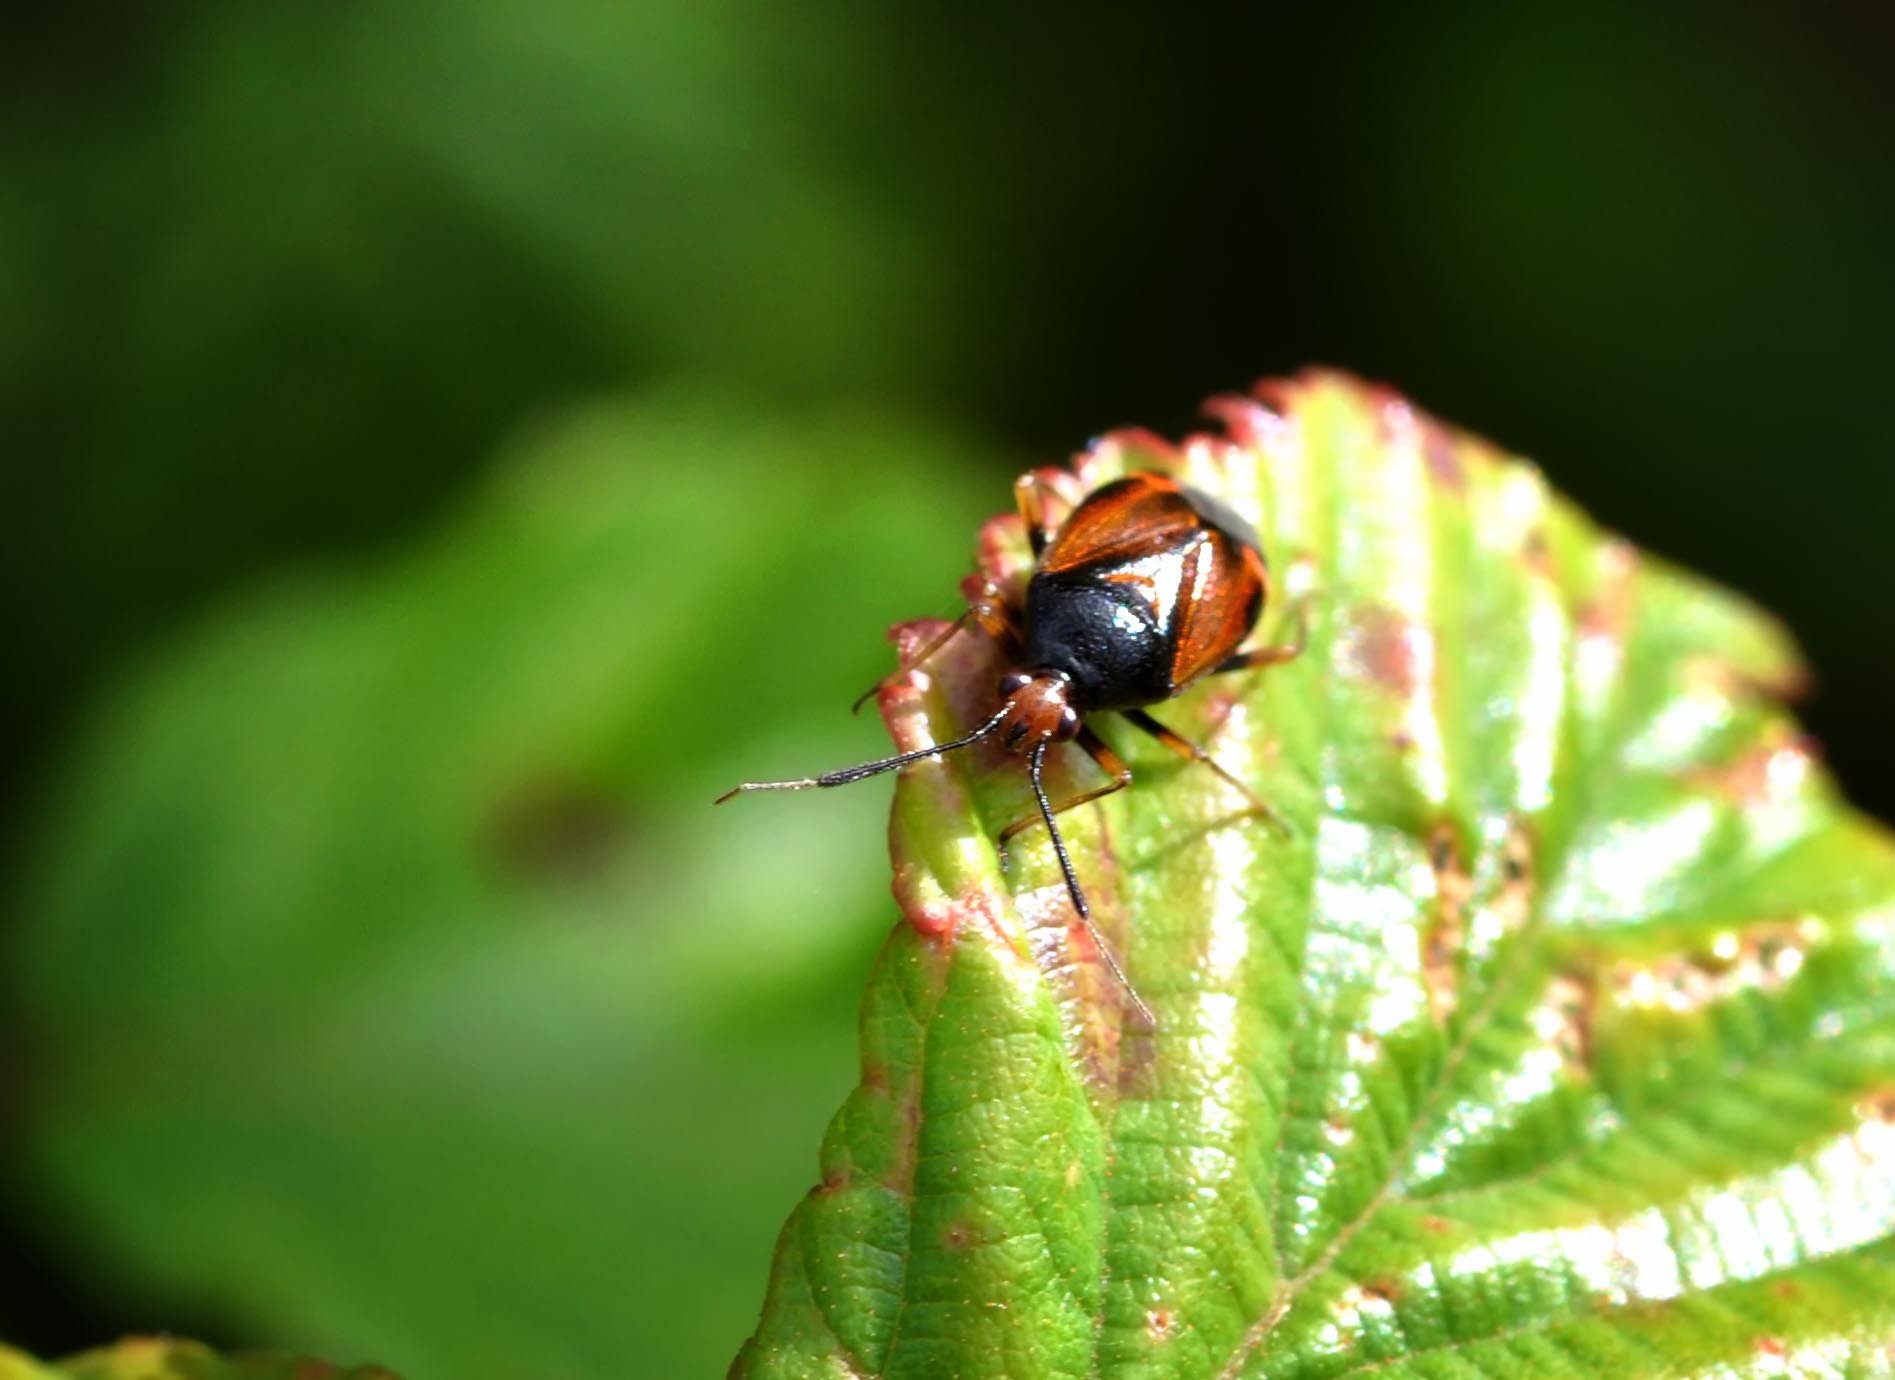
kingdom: Animalia
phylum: Arthropoda
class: Insecta
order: Hemiptera
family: Miridae
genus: Deraeocoris
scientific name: Deraeocoris ruber
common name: Plant bug
